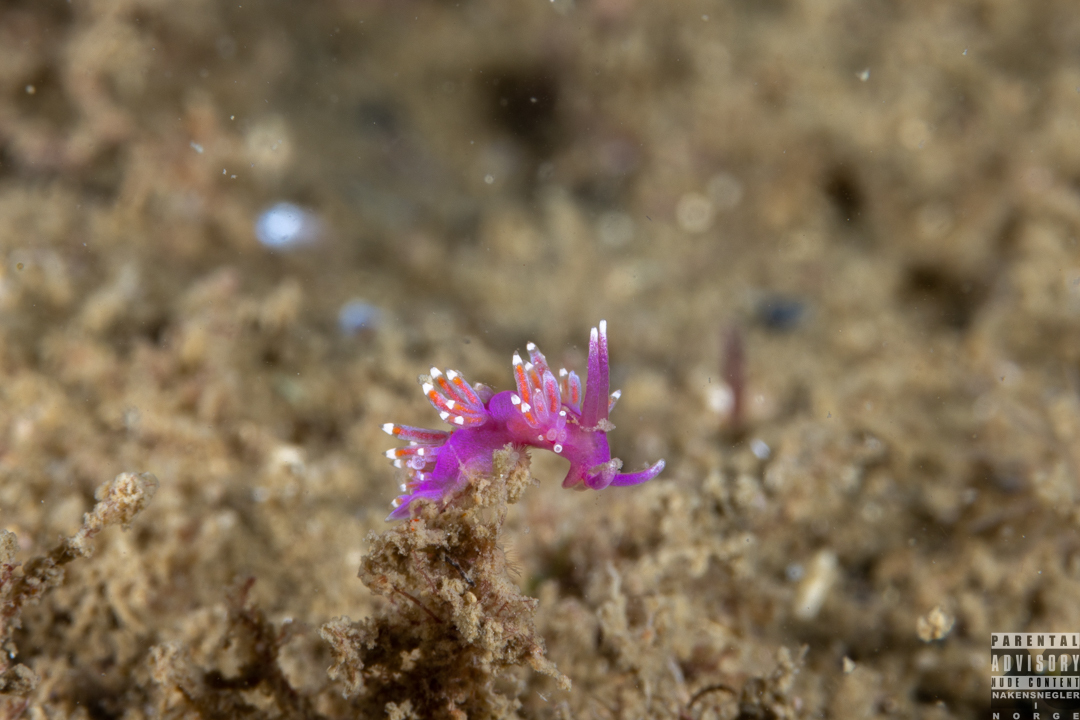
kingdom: Animalia
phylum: Mollusca
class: Gastropoda
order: Nudibranchia
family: Flabellinidae
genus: Edmundsella
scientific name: Edmundsella pedata
